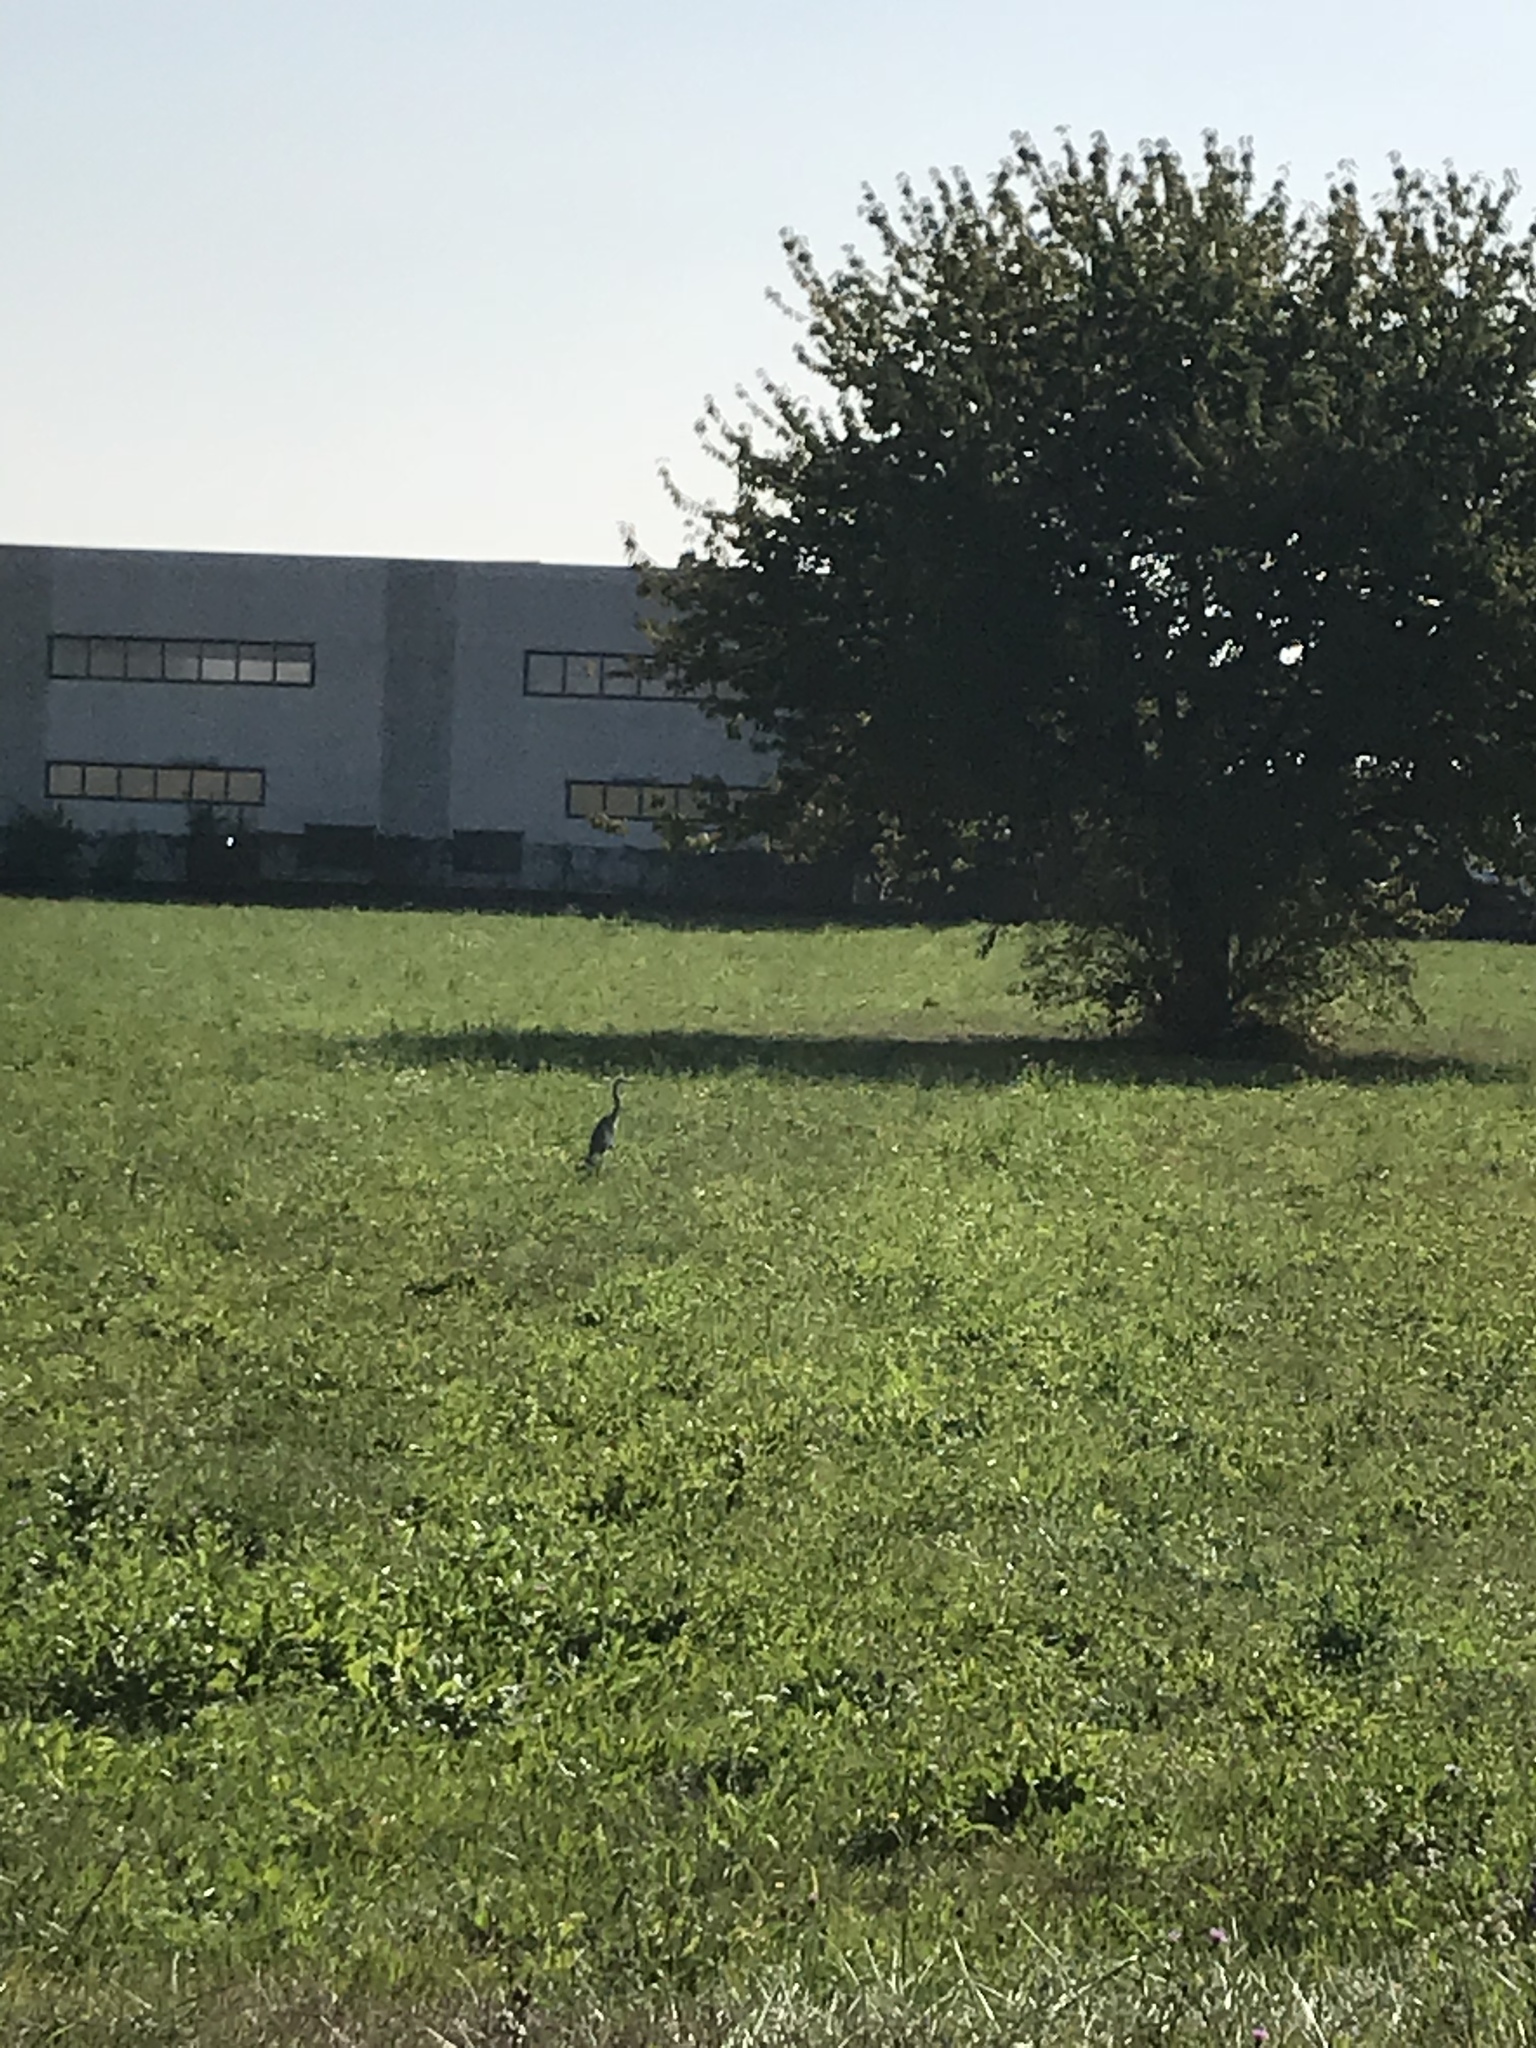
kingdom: Animalia
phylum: Chordata
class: Aves
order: Pelecaniformes
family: Ardeidae
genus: Ardea
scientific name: Ardea cinerea
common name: Grey heron
